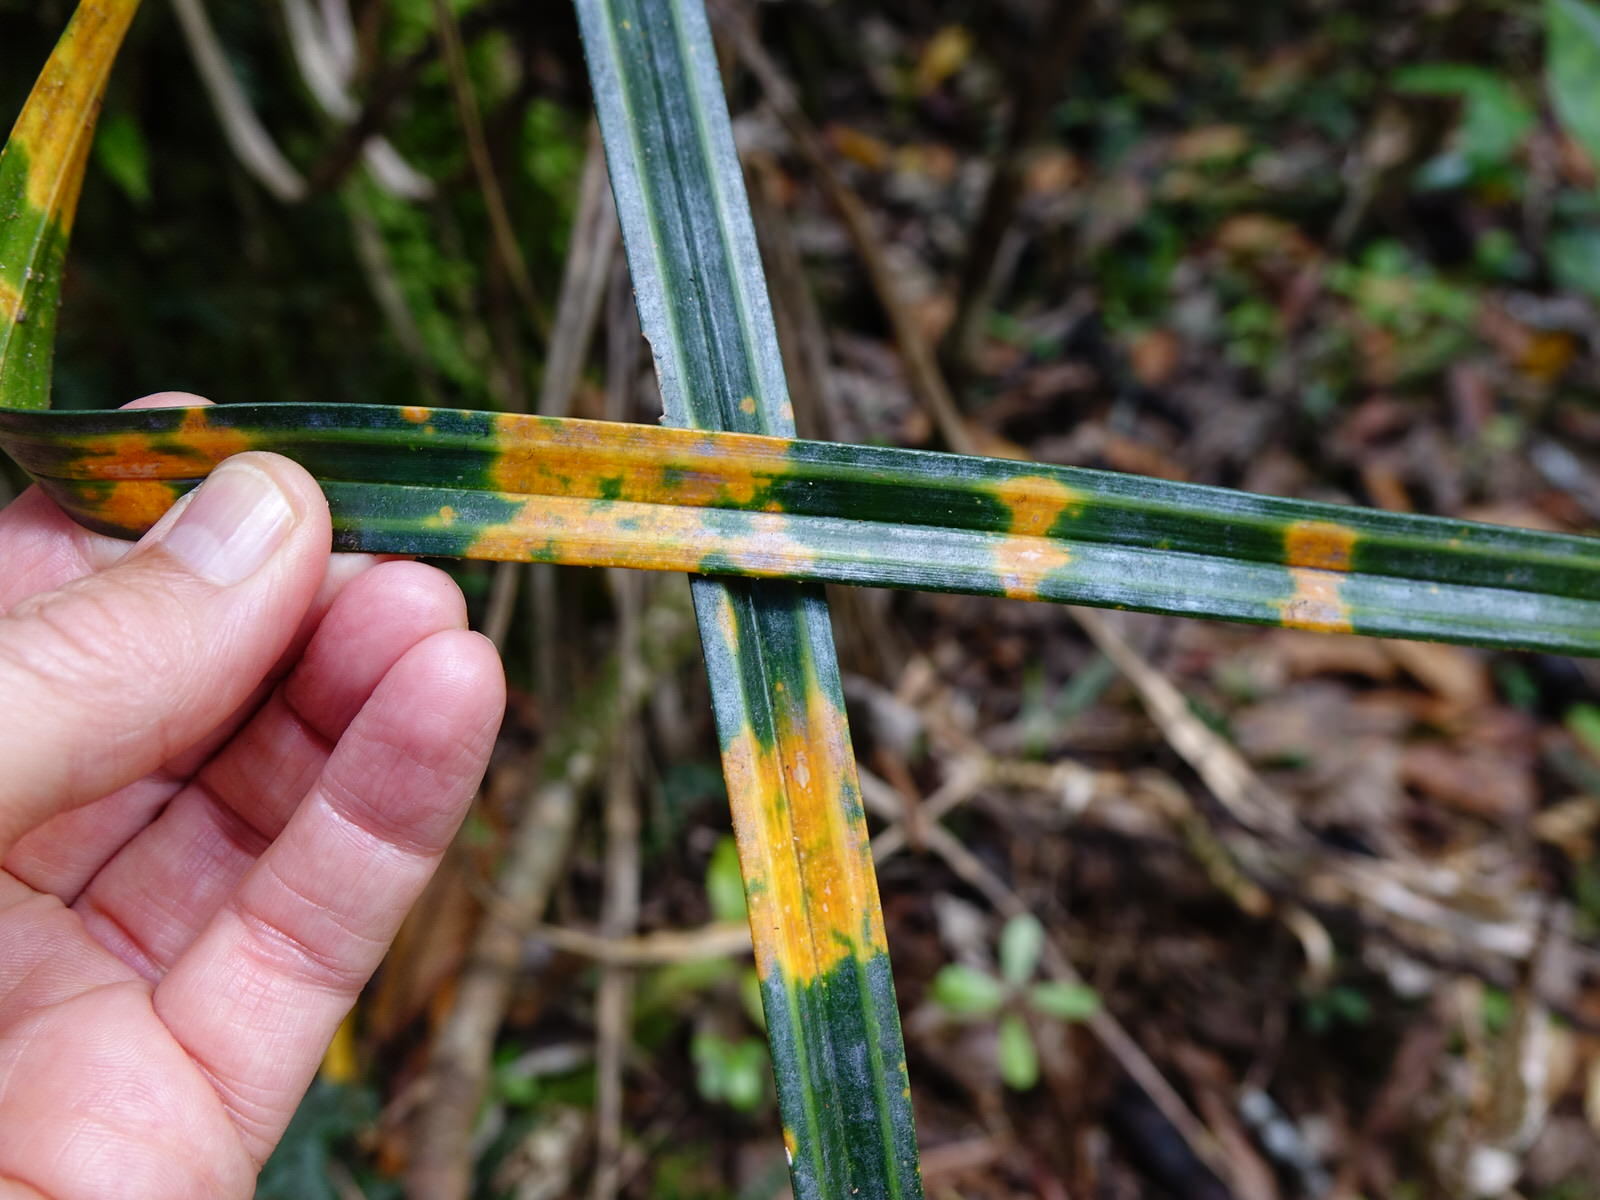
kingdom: Plantae
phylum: Tracheophyta
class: Liliopsida
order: Pandanales
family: Pandanaceae
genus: Freycinetia
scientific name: Freycinetia banksii
